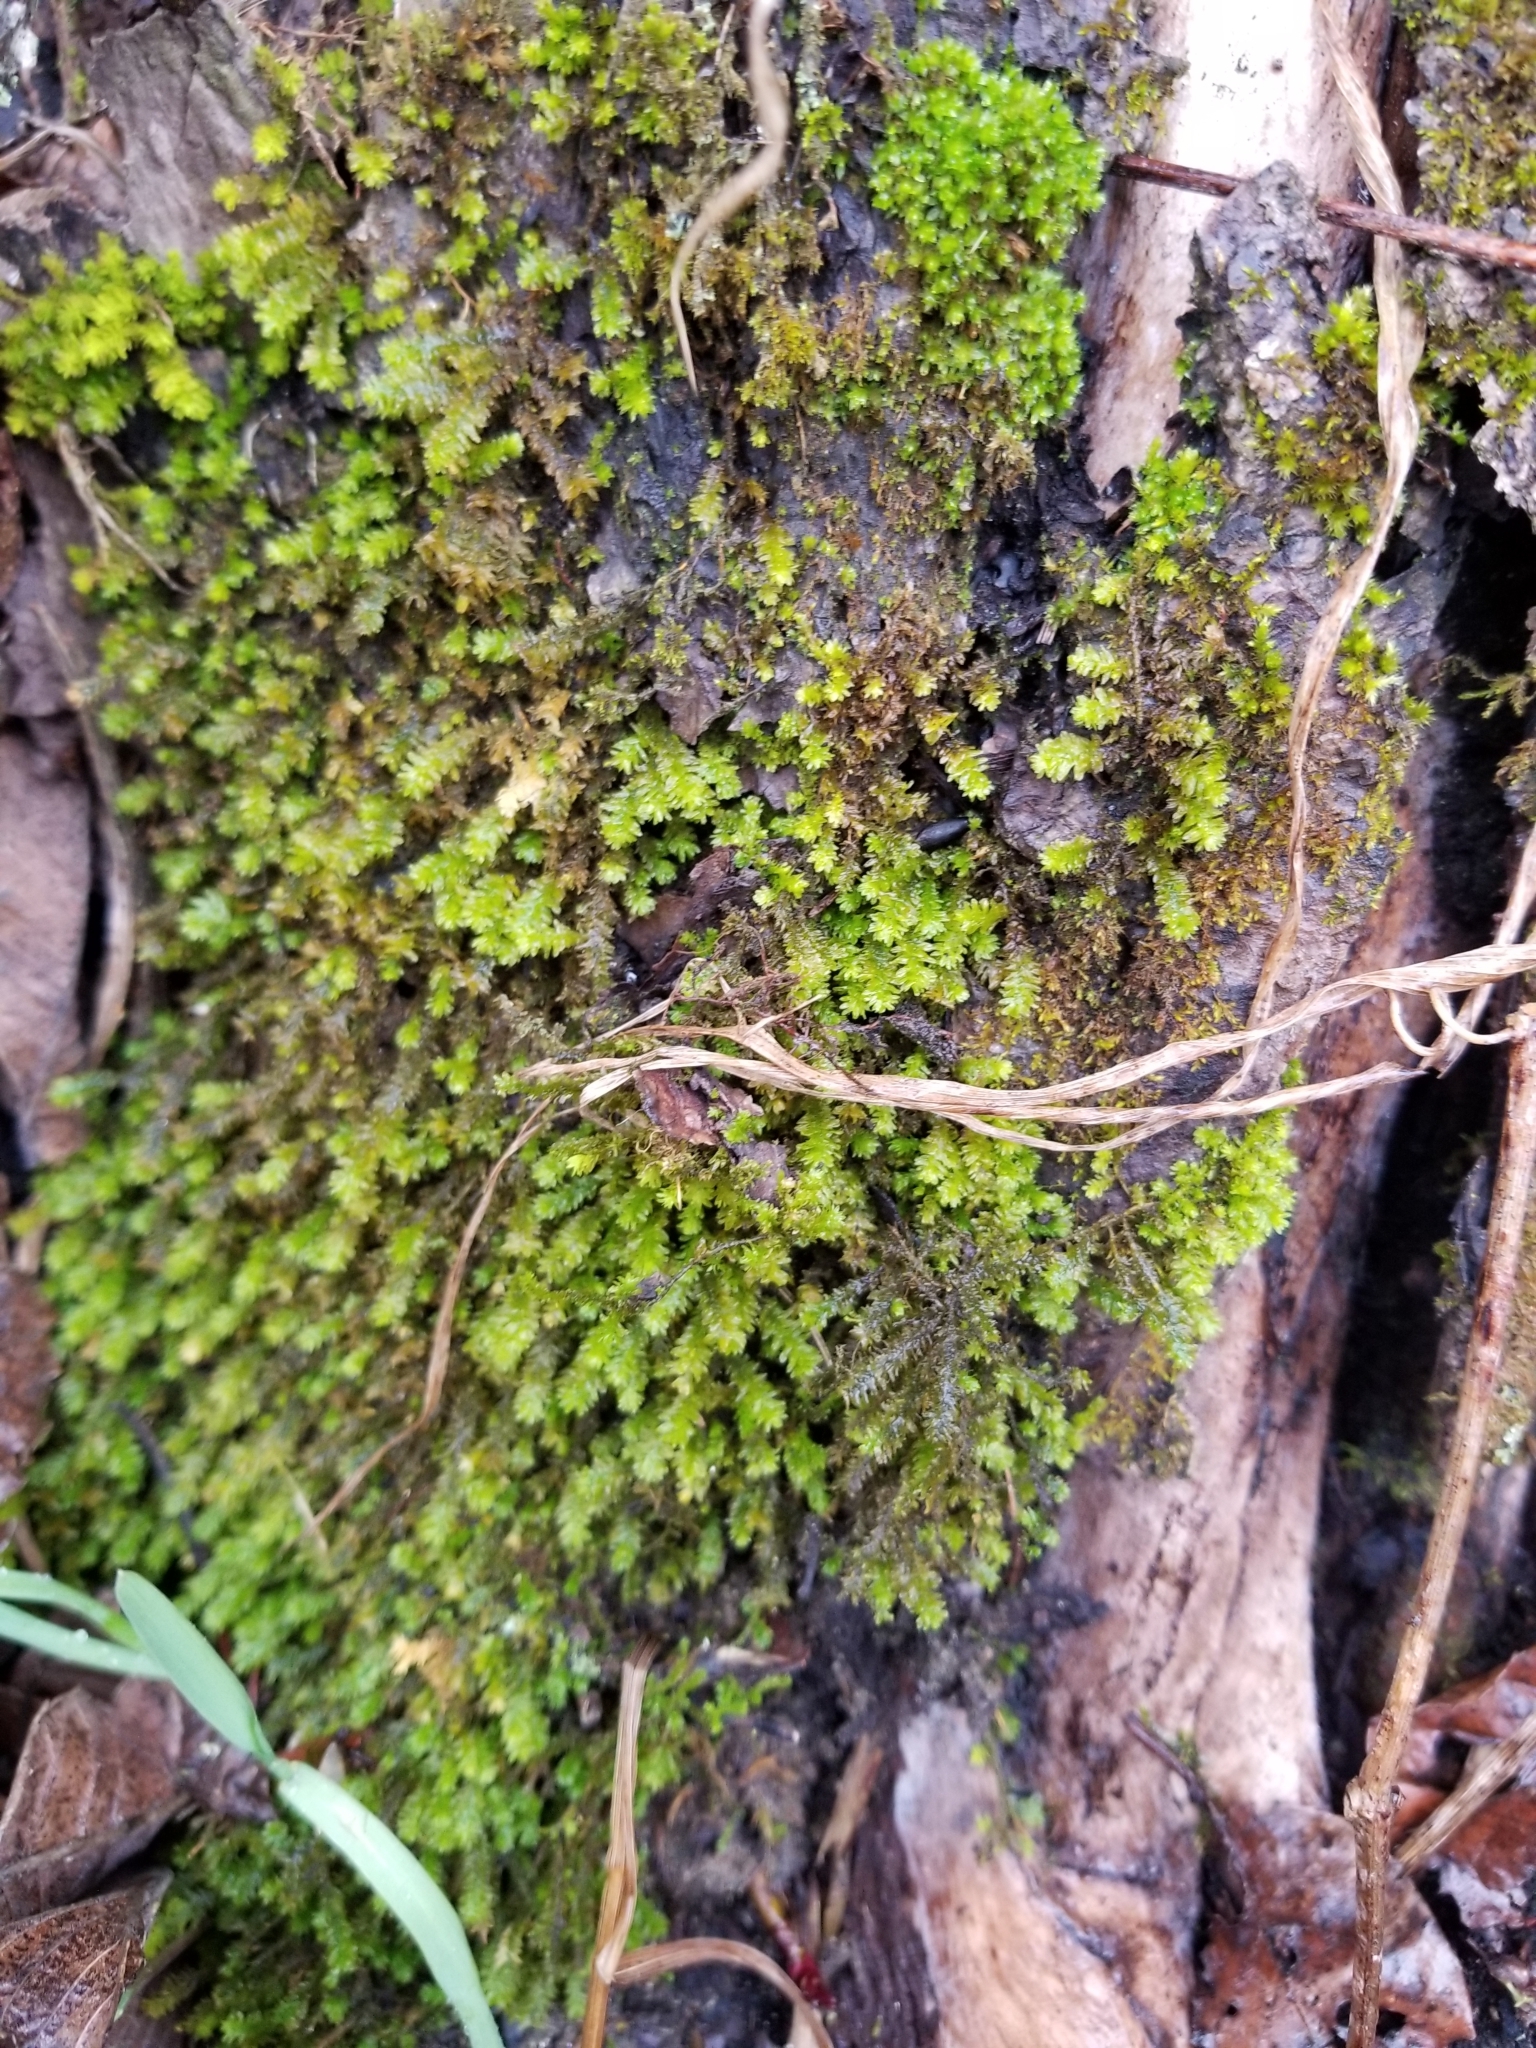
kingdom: Plantae
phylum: Bryophyta
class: Bryopsida
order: Hypnales
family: Anomodontaceae
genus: Anomodon
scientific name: Anomodon minor
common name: Blunt-leaved anomodon
